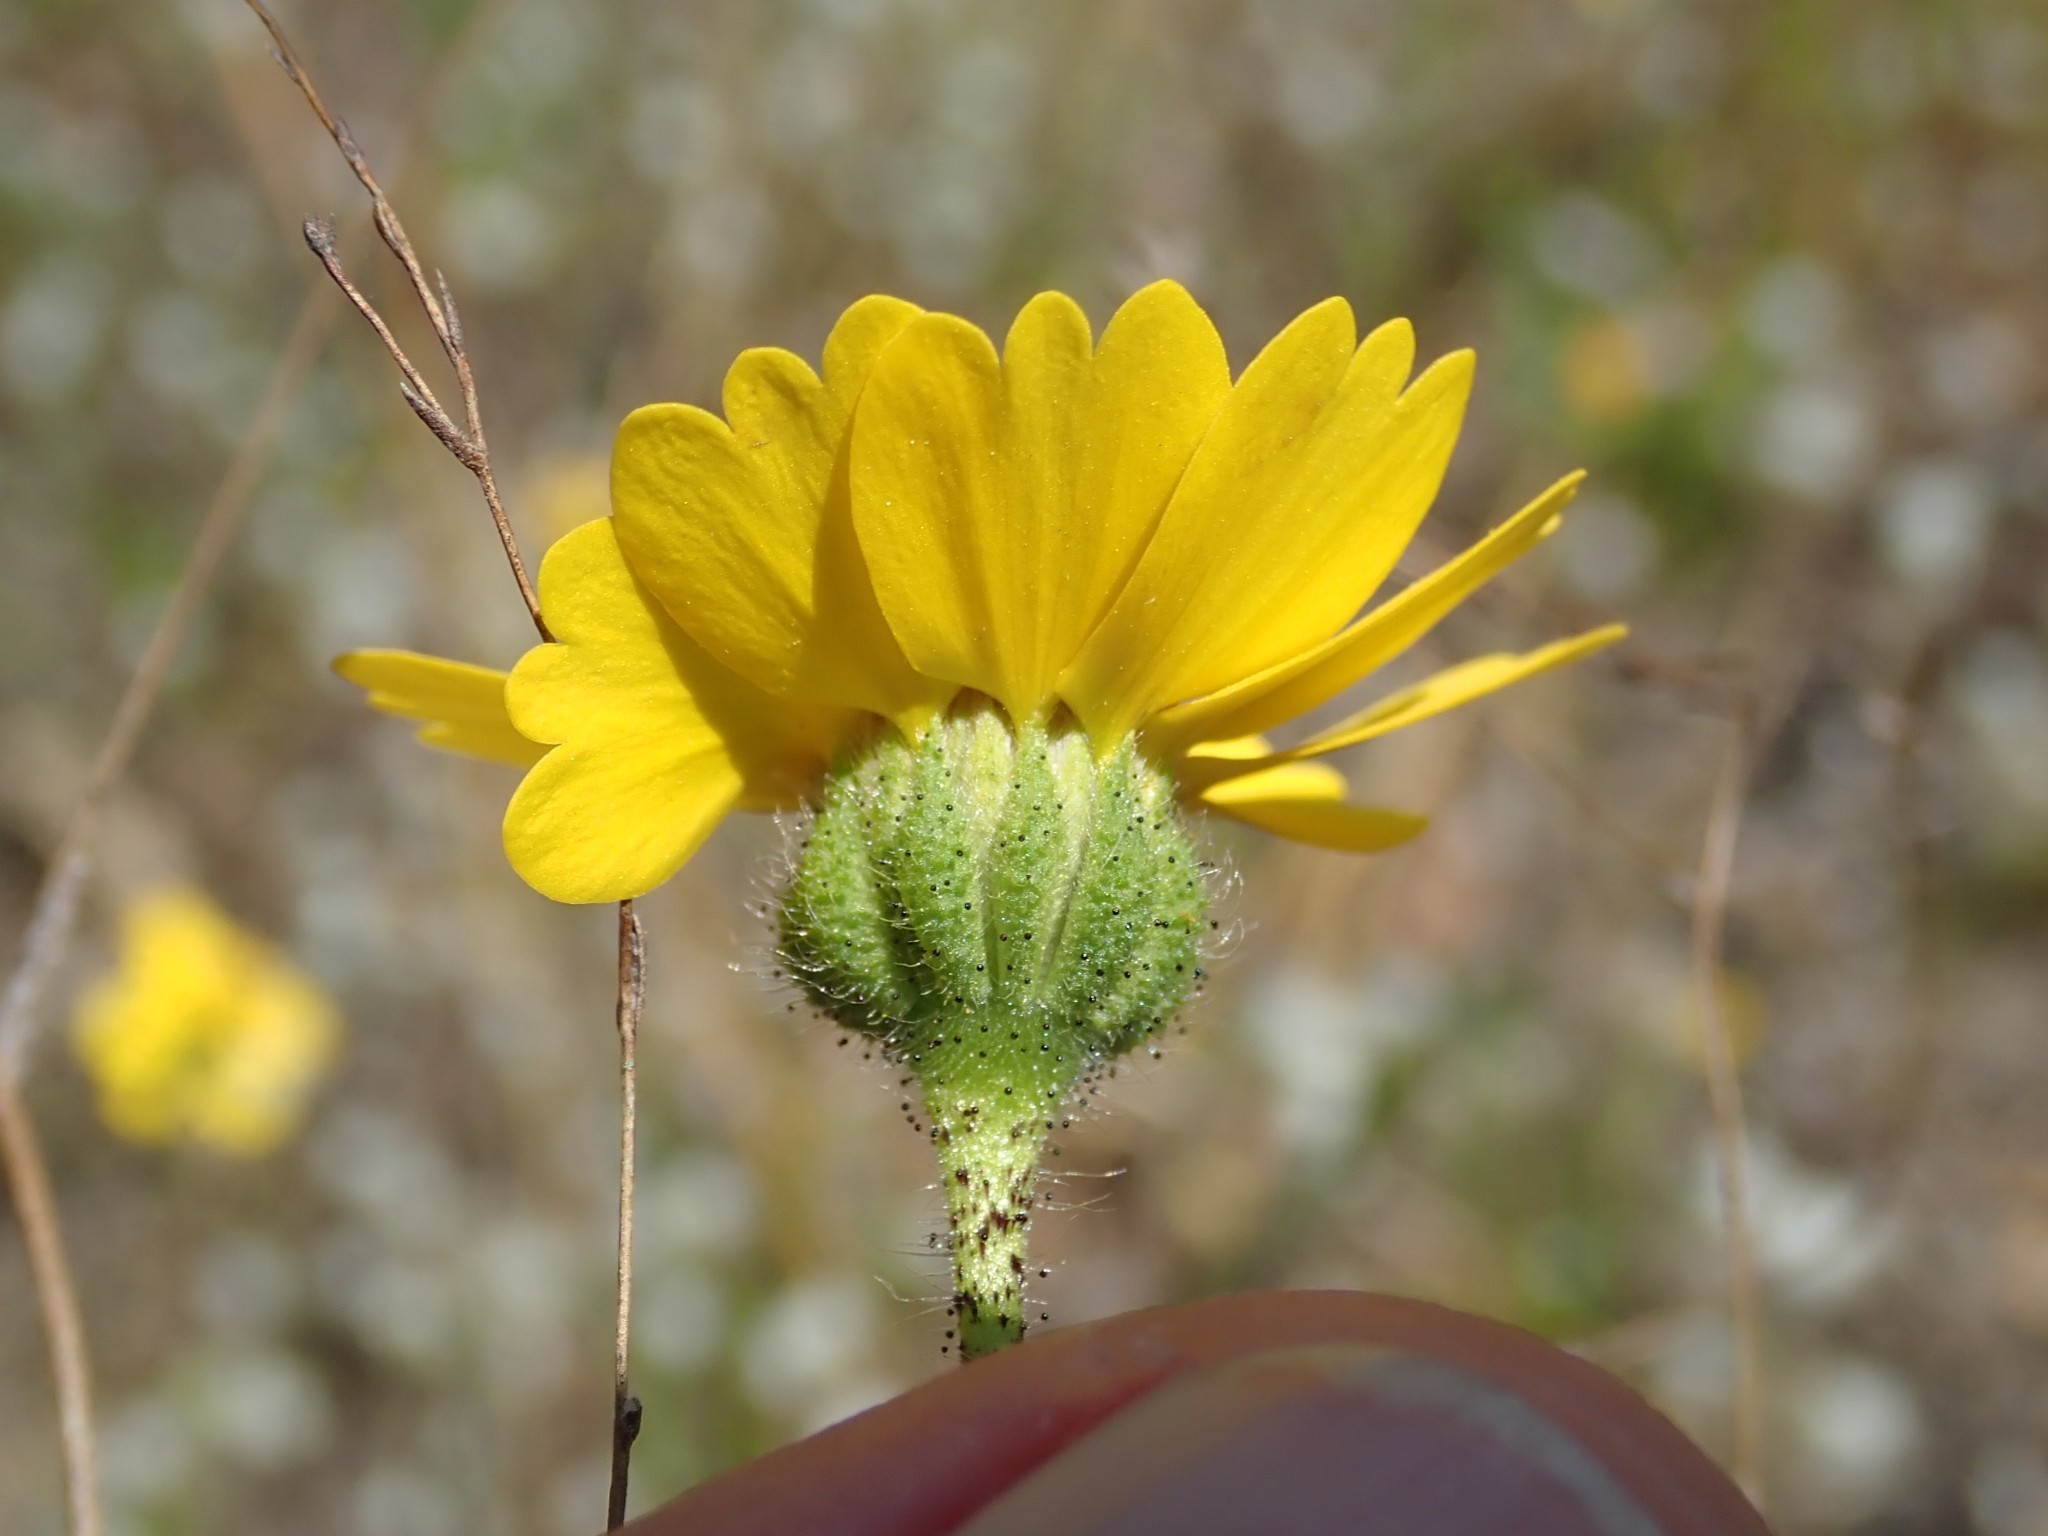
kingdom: Plantae
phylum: Tracheophyta
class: Magnoliopsida
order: Asterales
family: Asteraceae
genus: Layia
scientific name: Layia gaillardioides
